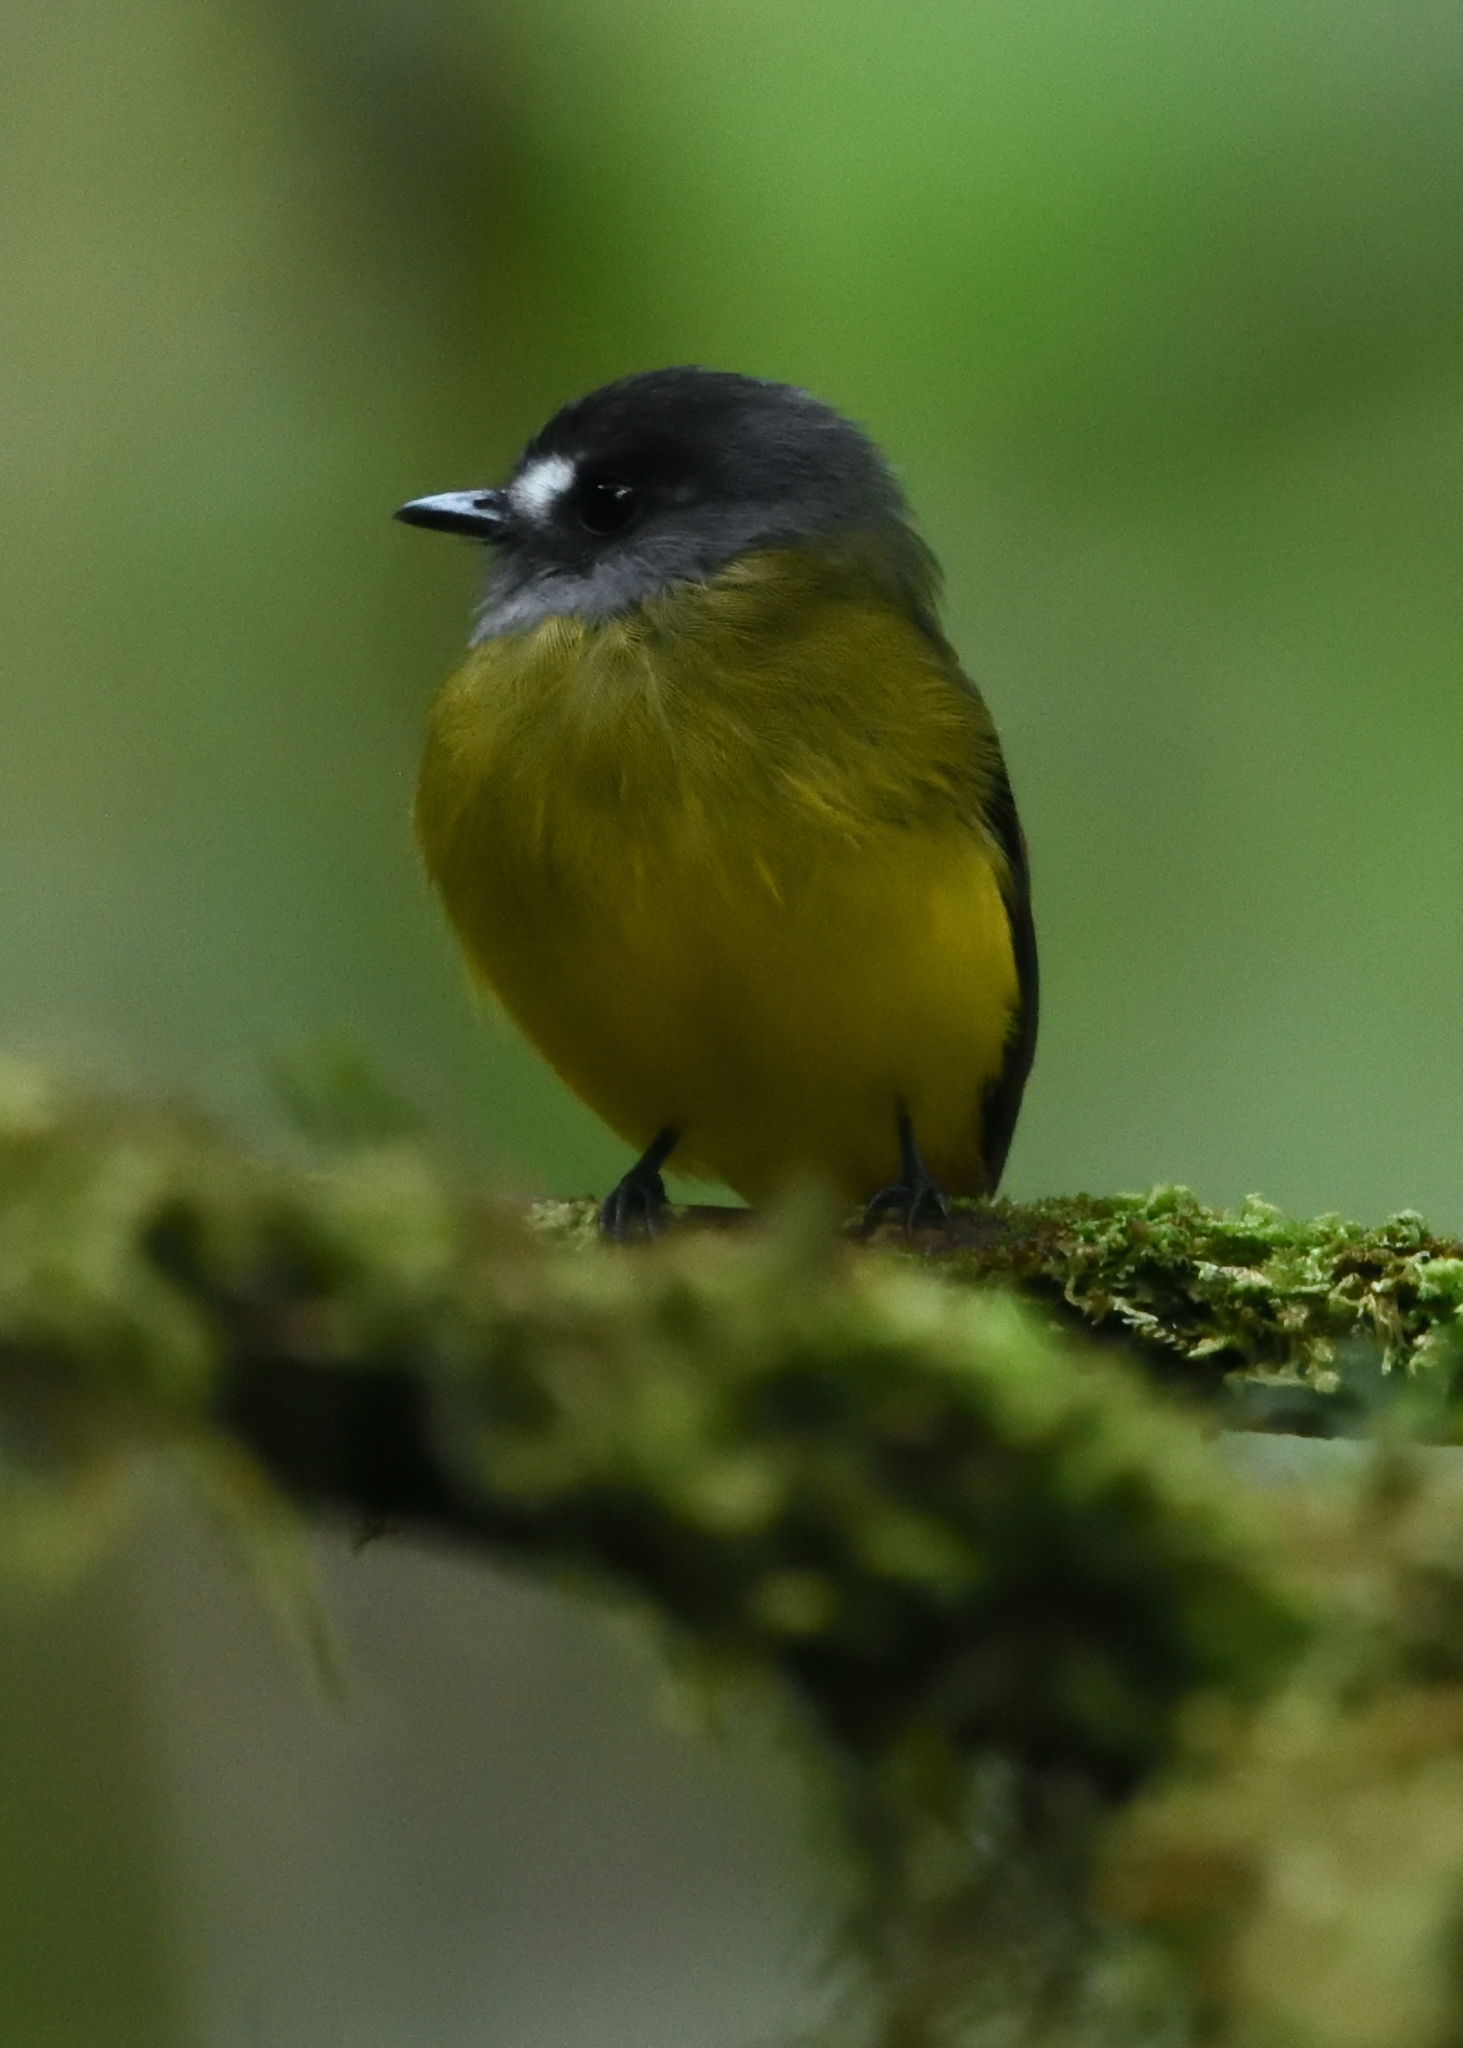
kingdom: Animalia
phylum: Chordata
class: Aves
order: Passeriformes
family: Tyrannidae
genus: Myiotriccus
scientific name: Myiotriccus ornatus
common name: Ornate flycatcher
